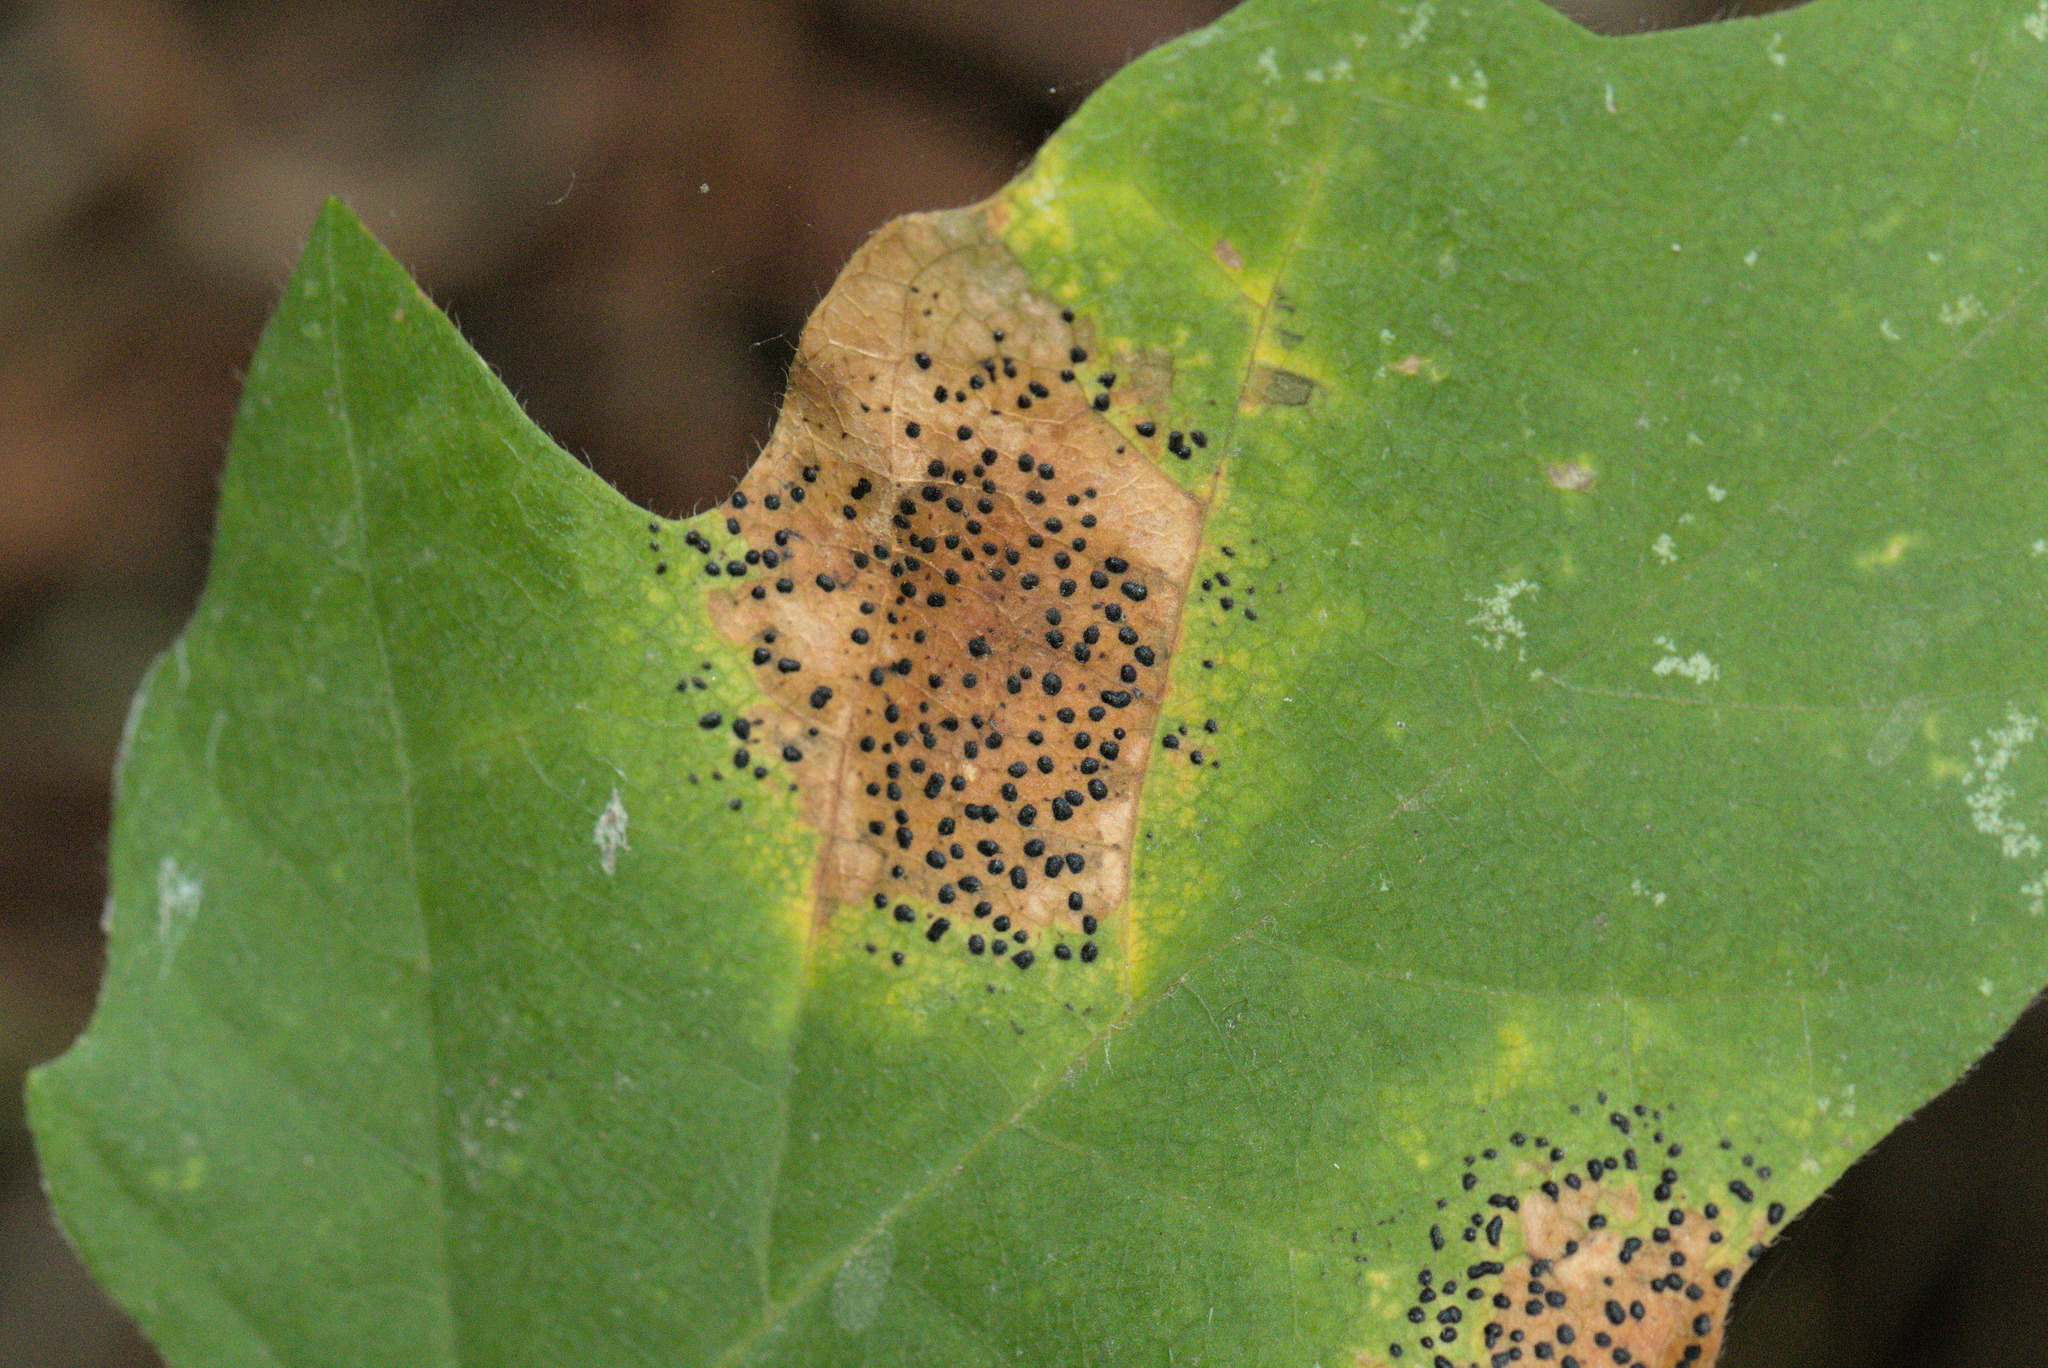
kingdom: Fungi
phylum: Ascomycota
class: Leotiomycetes
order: Rhytismatales
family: Rhytismataceae
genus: Rhytisma
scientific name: Rhytisma punctatum
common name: Speckled tar spot
